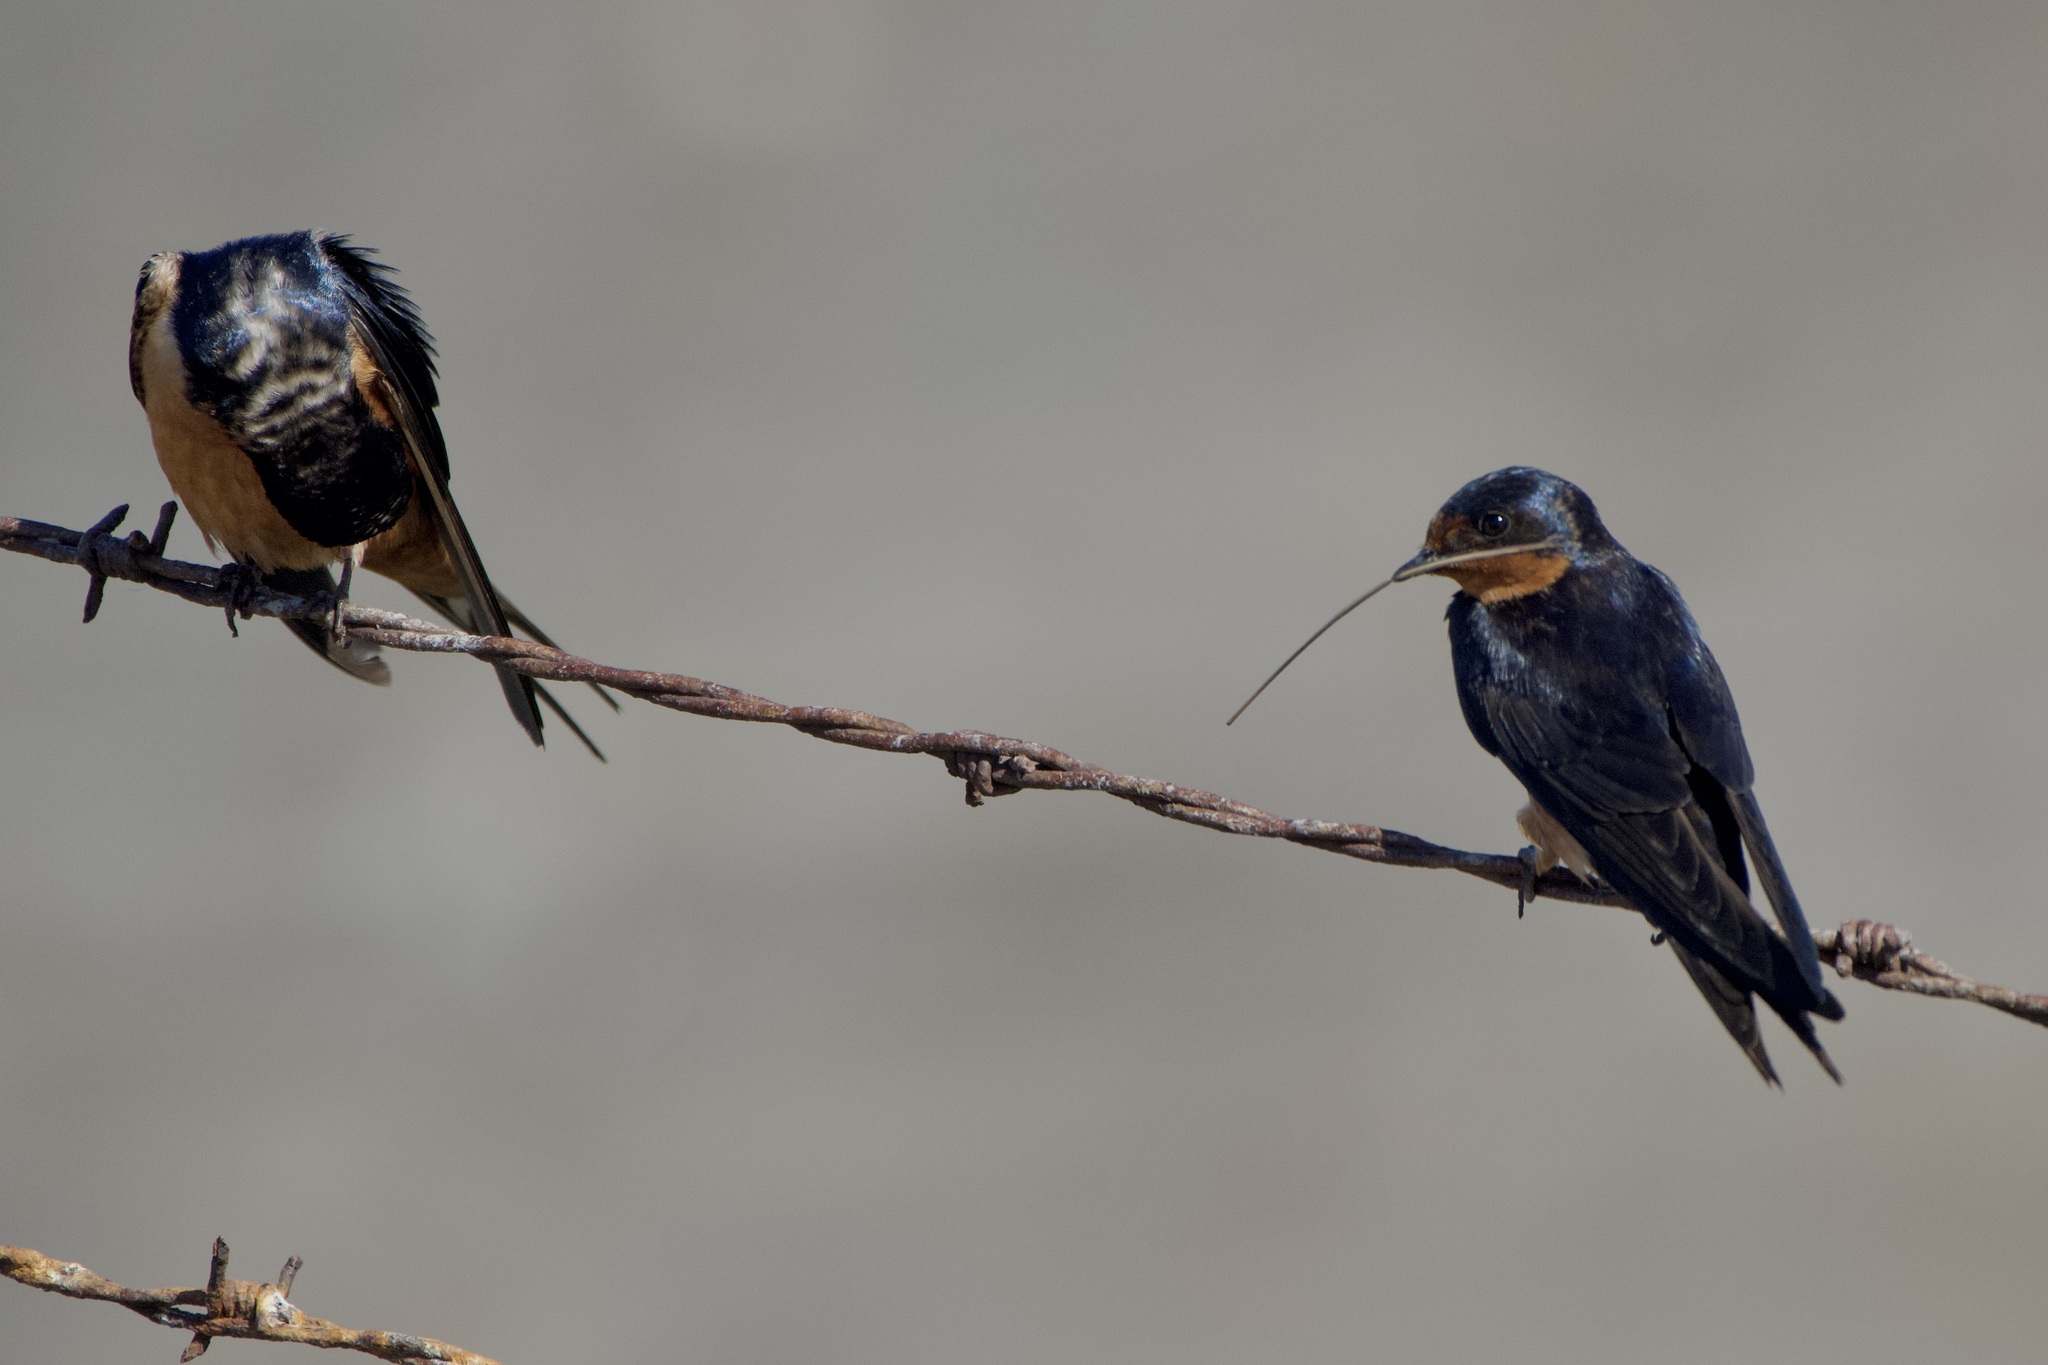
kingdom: Animalia
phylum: Chordata
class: Aves
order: Passeriformes
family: Hirundinidae
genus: Hirundo
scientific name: Hirundo rustica
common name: Barn swallow
